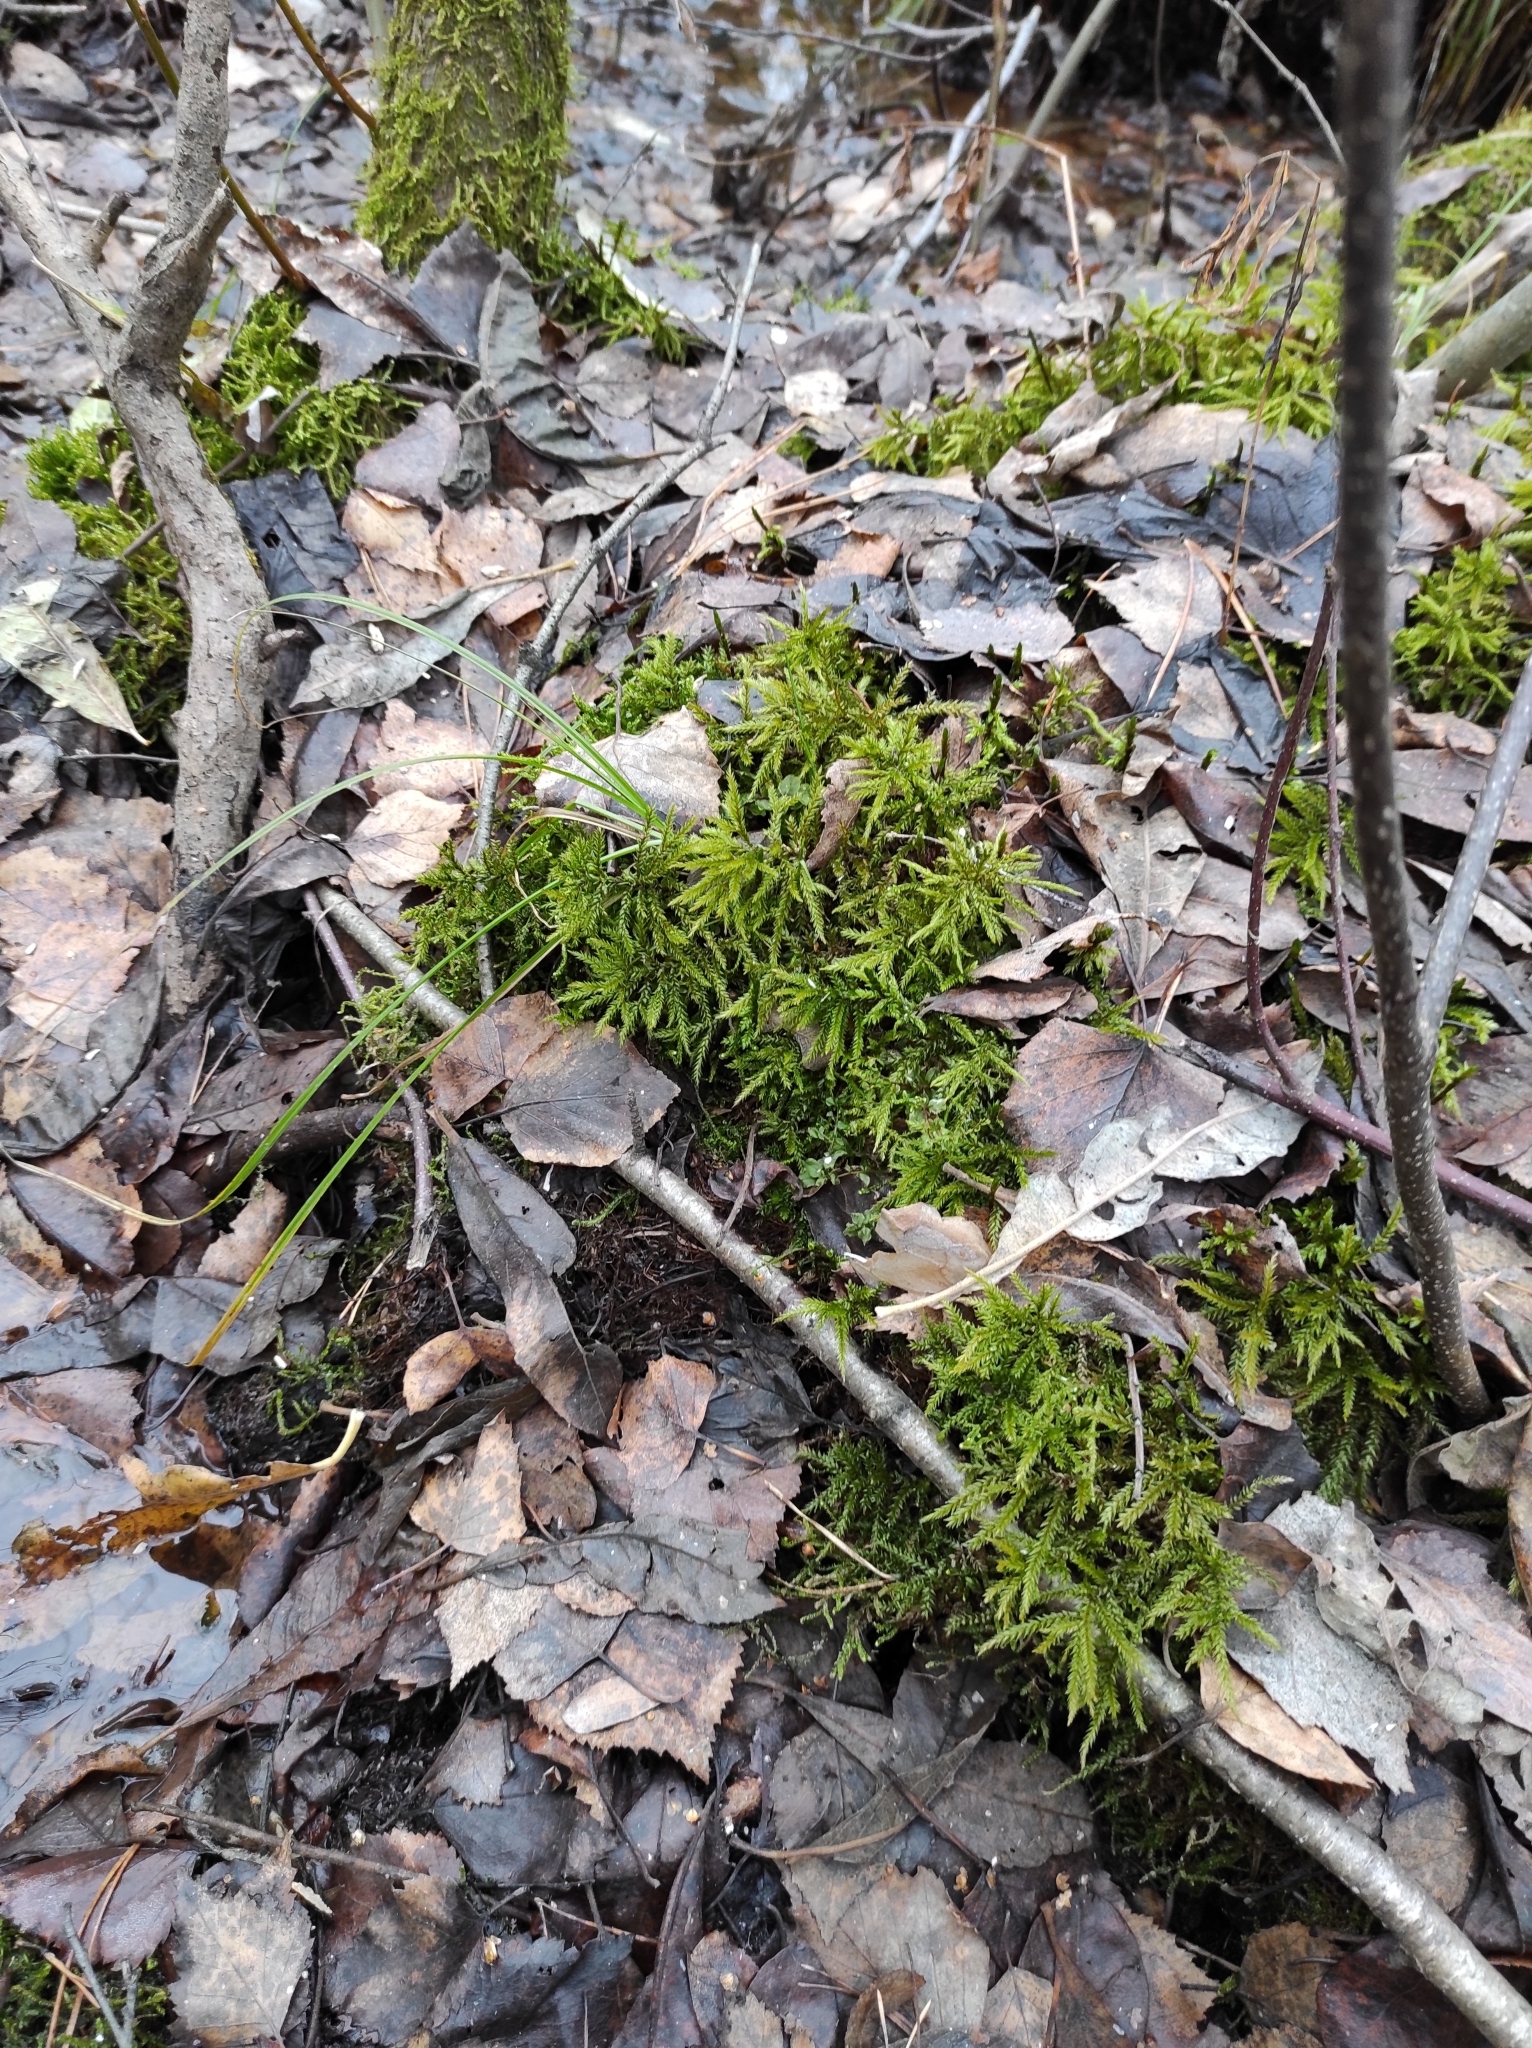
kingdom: Plantae
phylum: Bryophyta
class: Bryopsida
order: Hypnales
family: Climaciaceae
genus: Climacium
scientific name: Climacium dendroides
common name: Northern tree moss
